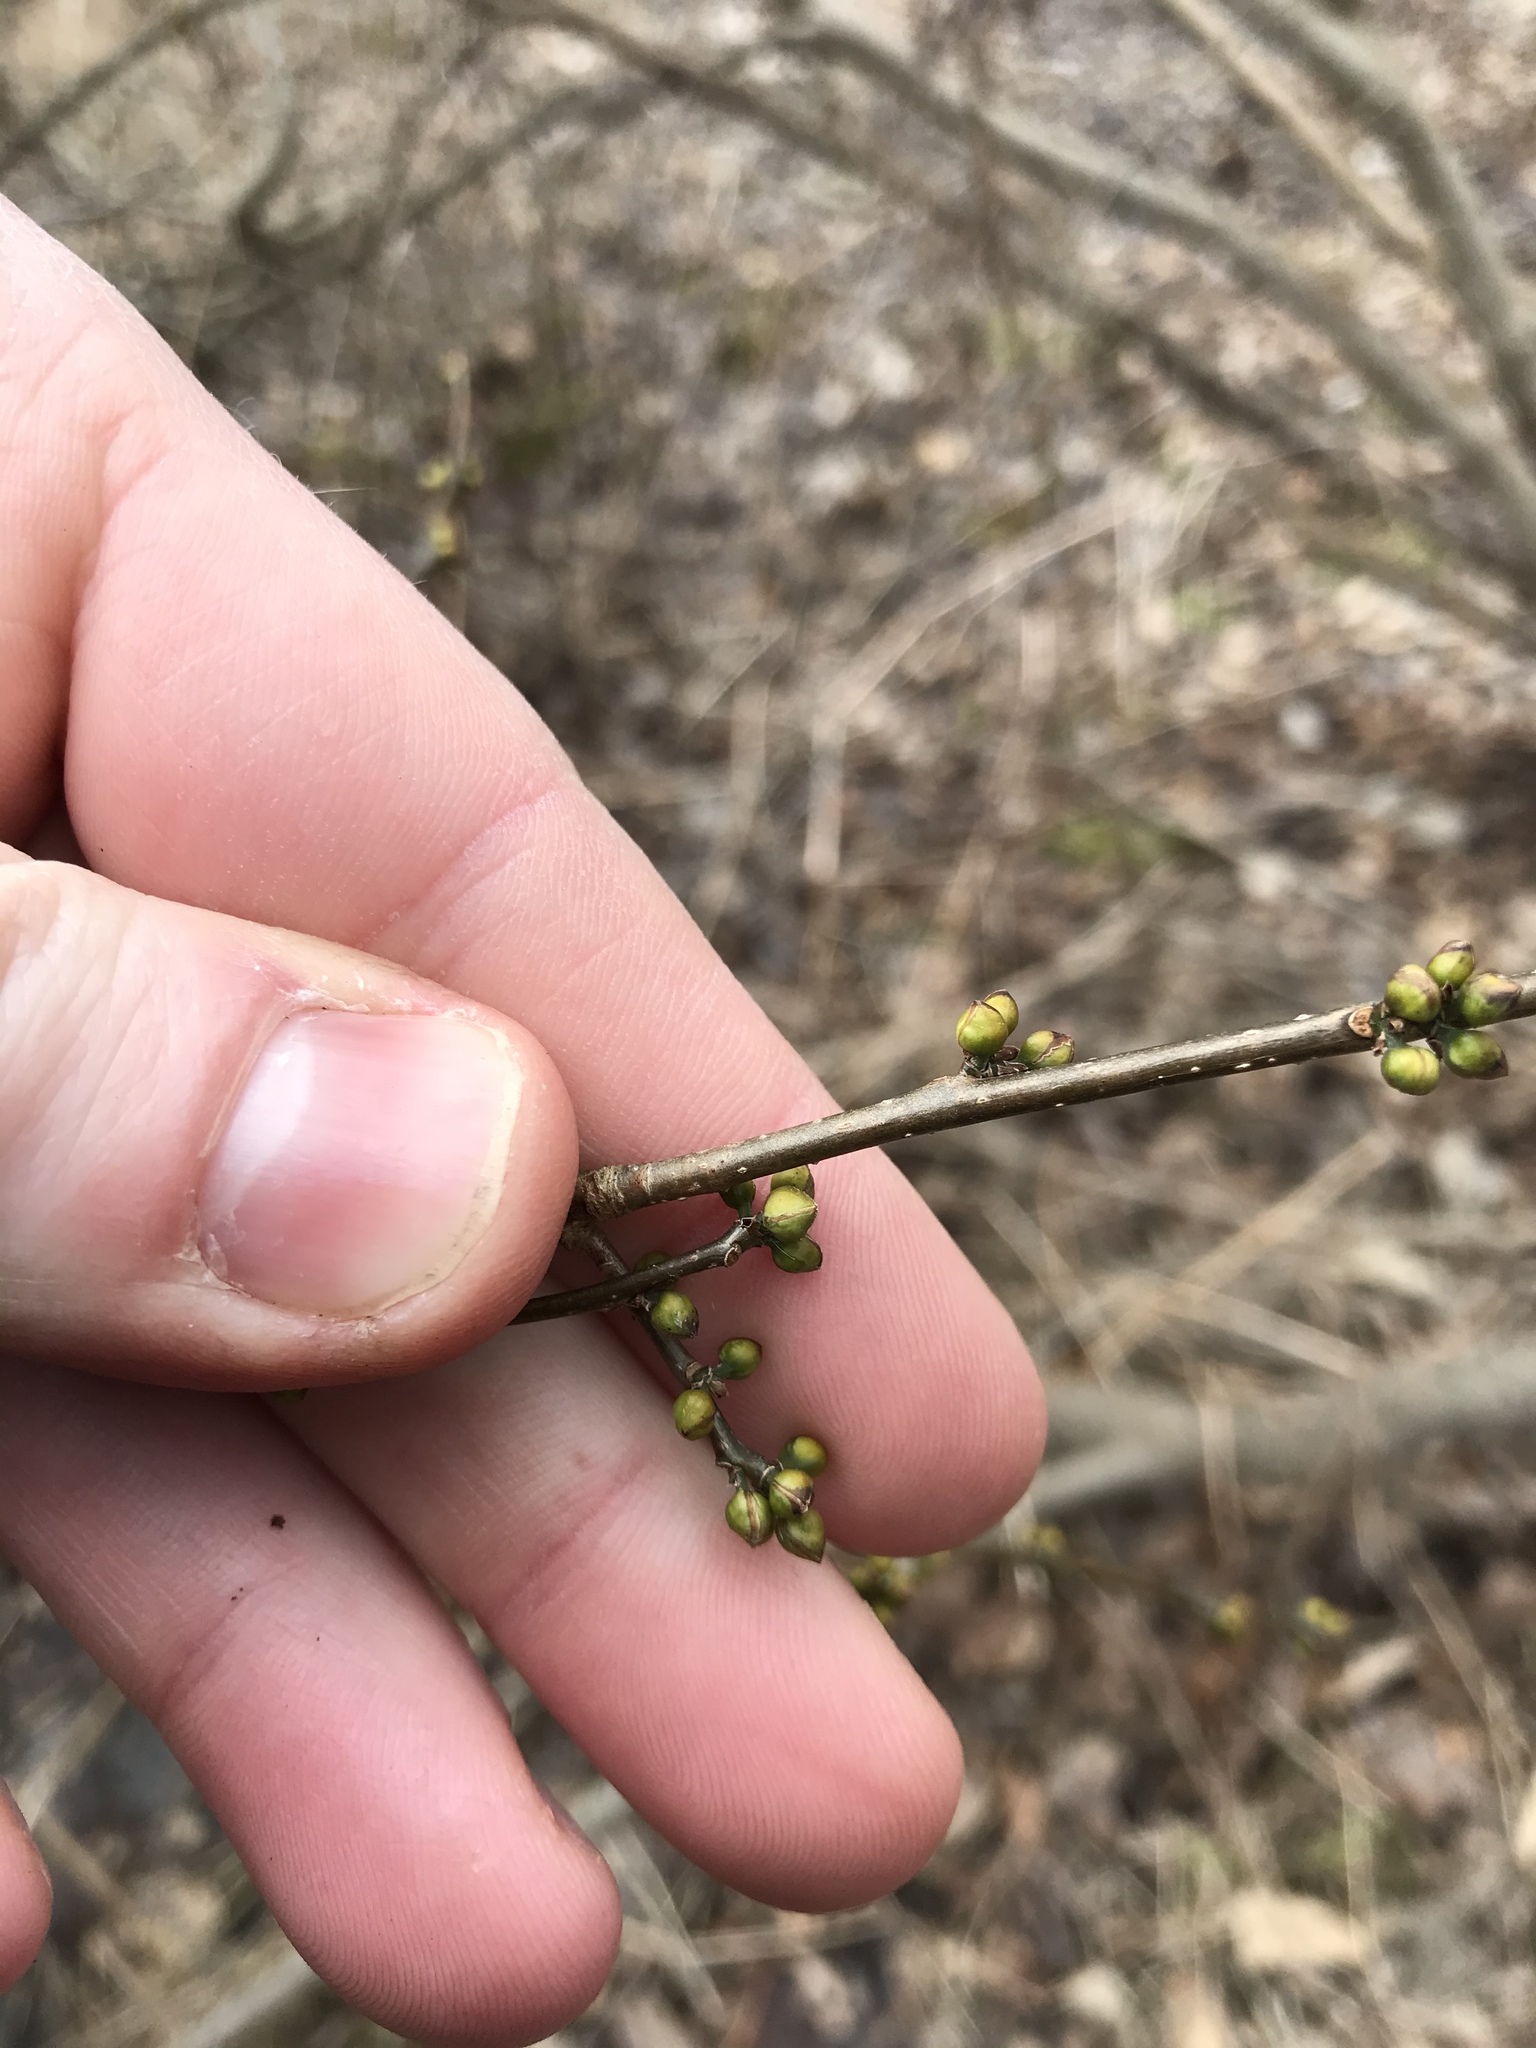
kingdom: Plantae
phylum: Tracheophyta
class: Magnoliopsida
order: Laurales
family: Lauraceae
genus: Lindera
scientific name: Lindera benzoin
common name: Spicebush
